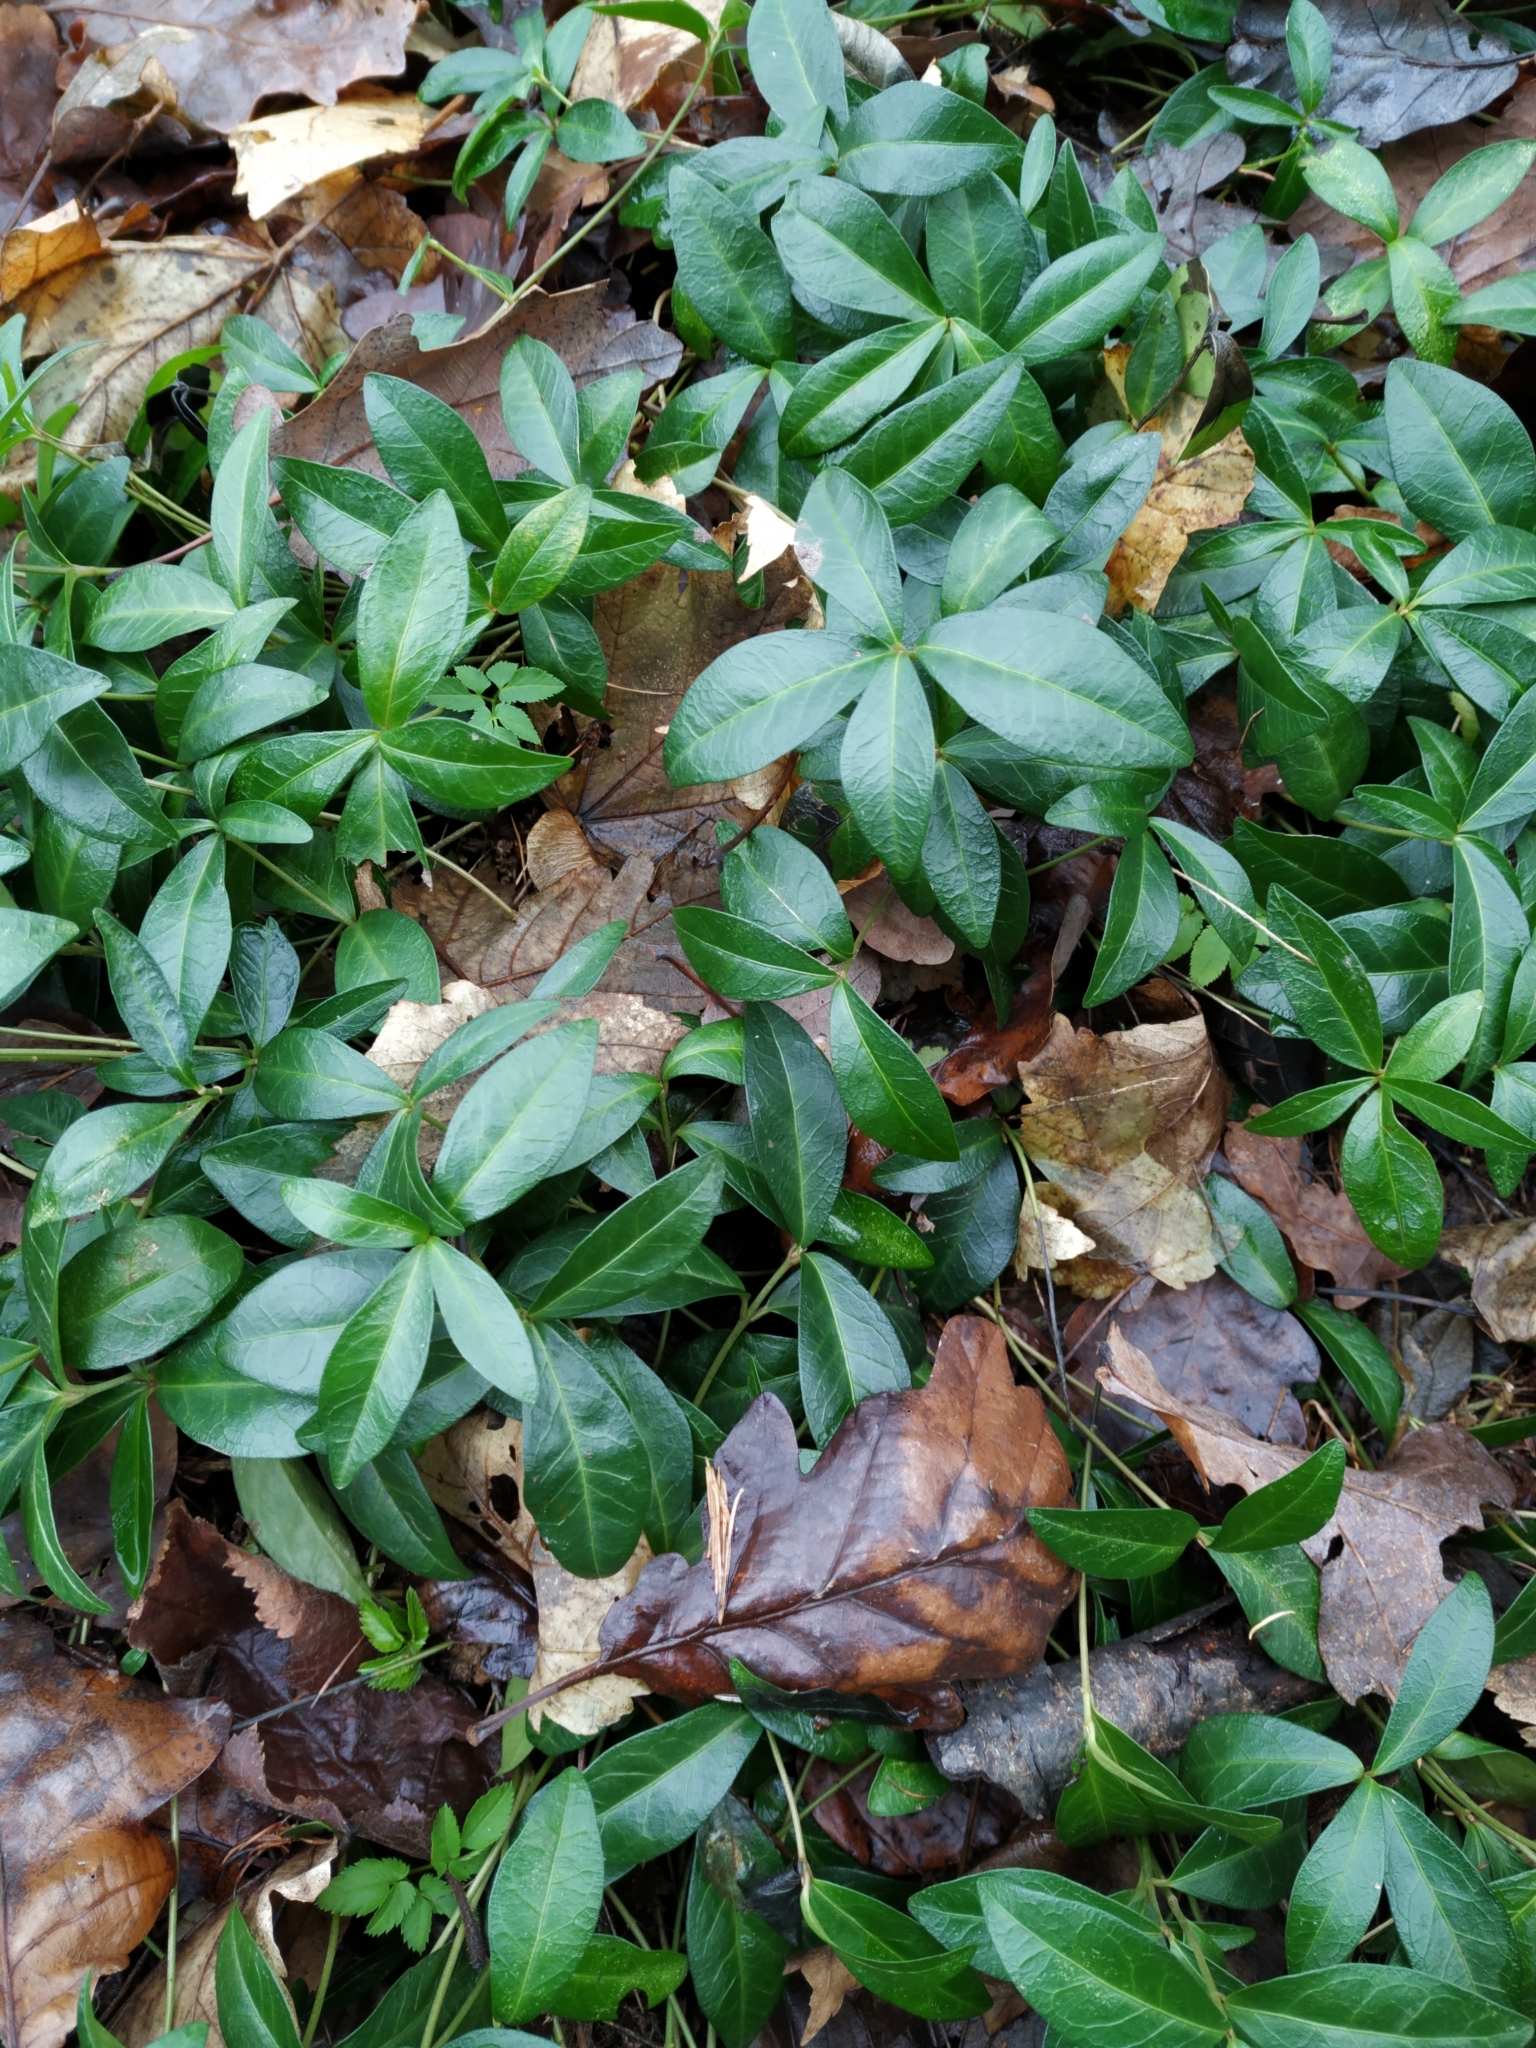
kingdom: Plantae
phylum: Tracheophyta
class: Magnoliopsida
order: Gentianales
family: Apocynaceae
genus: Vinca
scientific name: Vinca minor
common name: Lesser periwinkle
